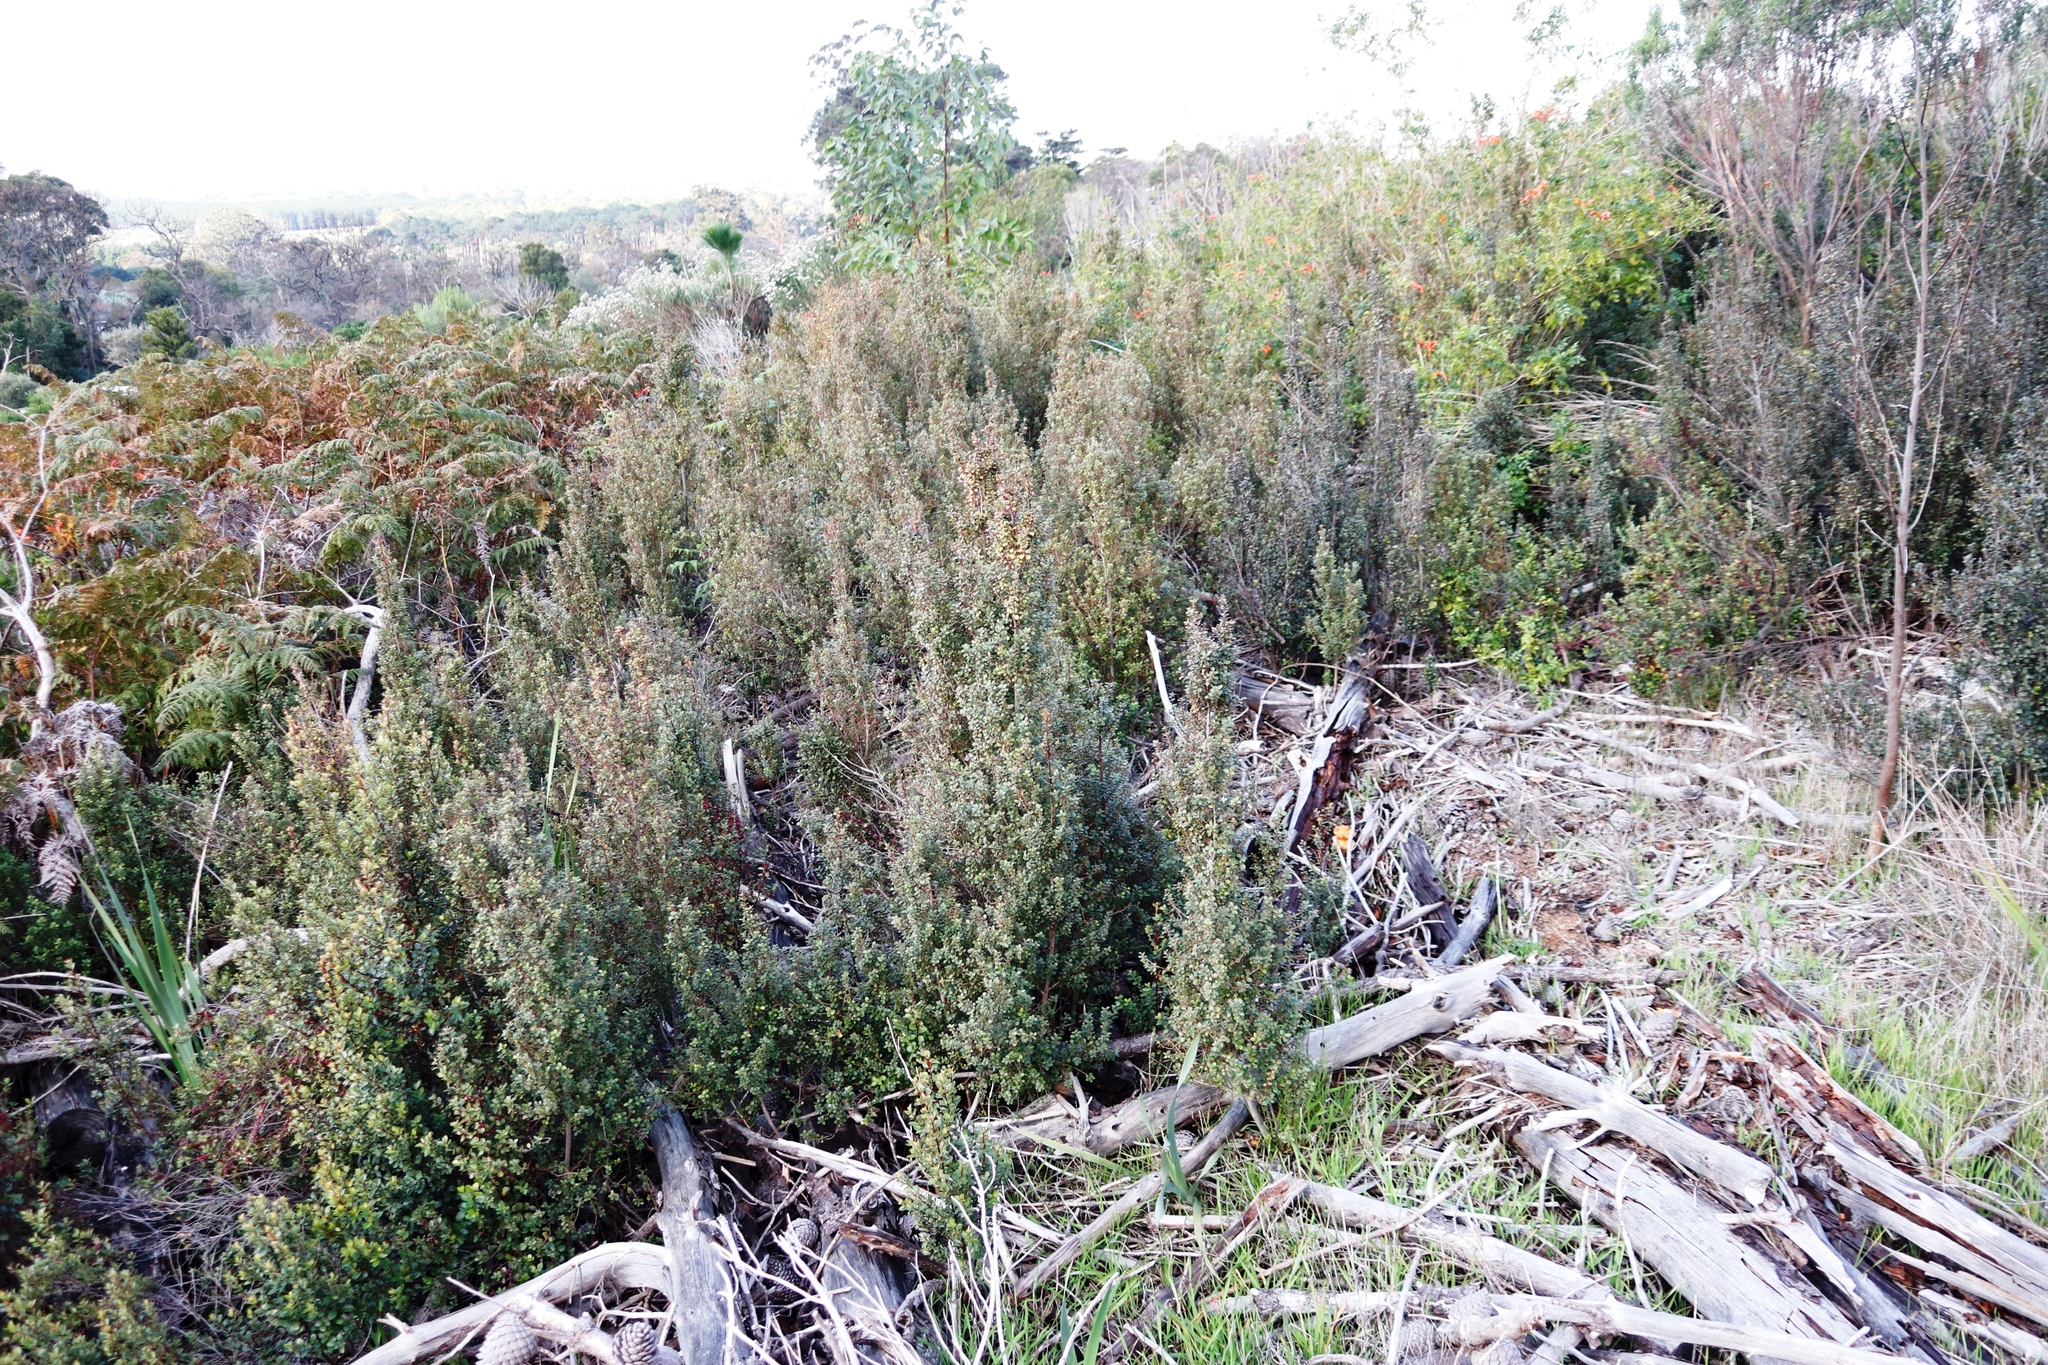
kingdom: Plantae
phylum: Tracheophyta
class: Magnoliopsida
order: Ericales
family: Primulaceae
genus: Myrsine
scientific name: Myrsine africana
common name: African-boxwood
